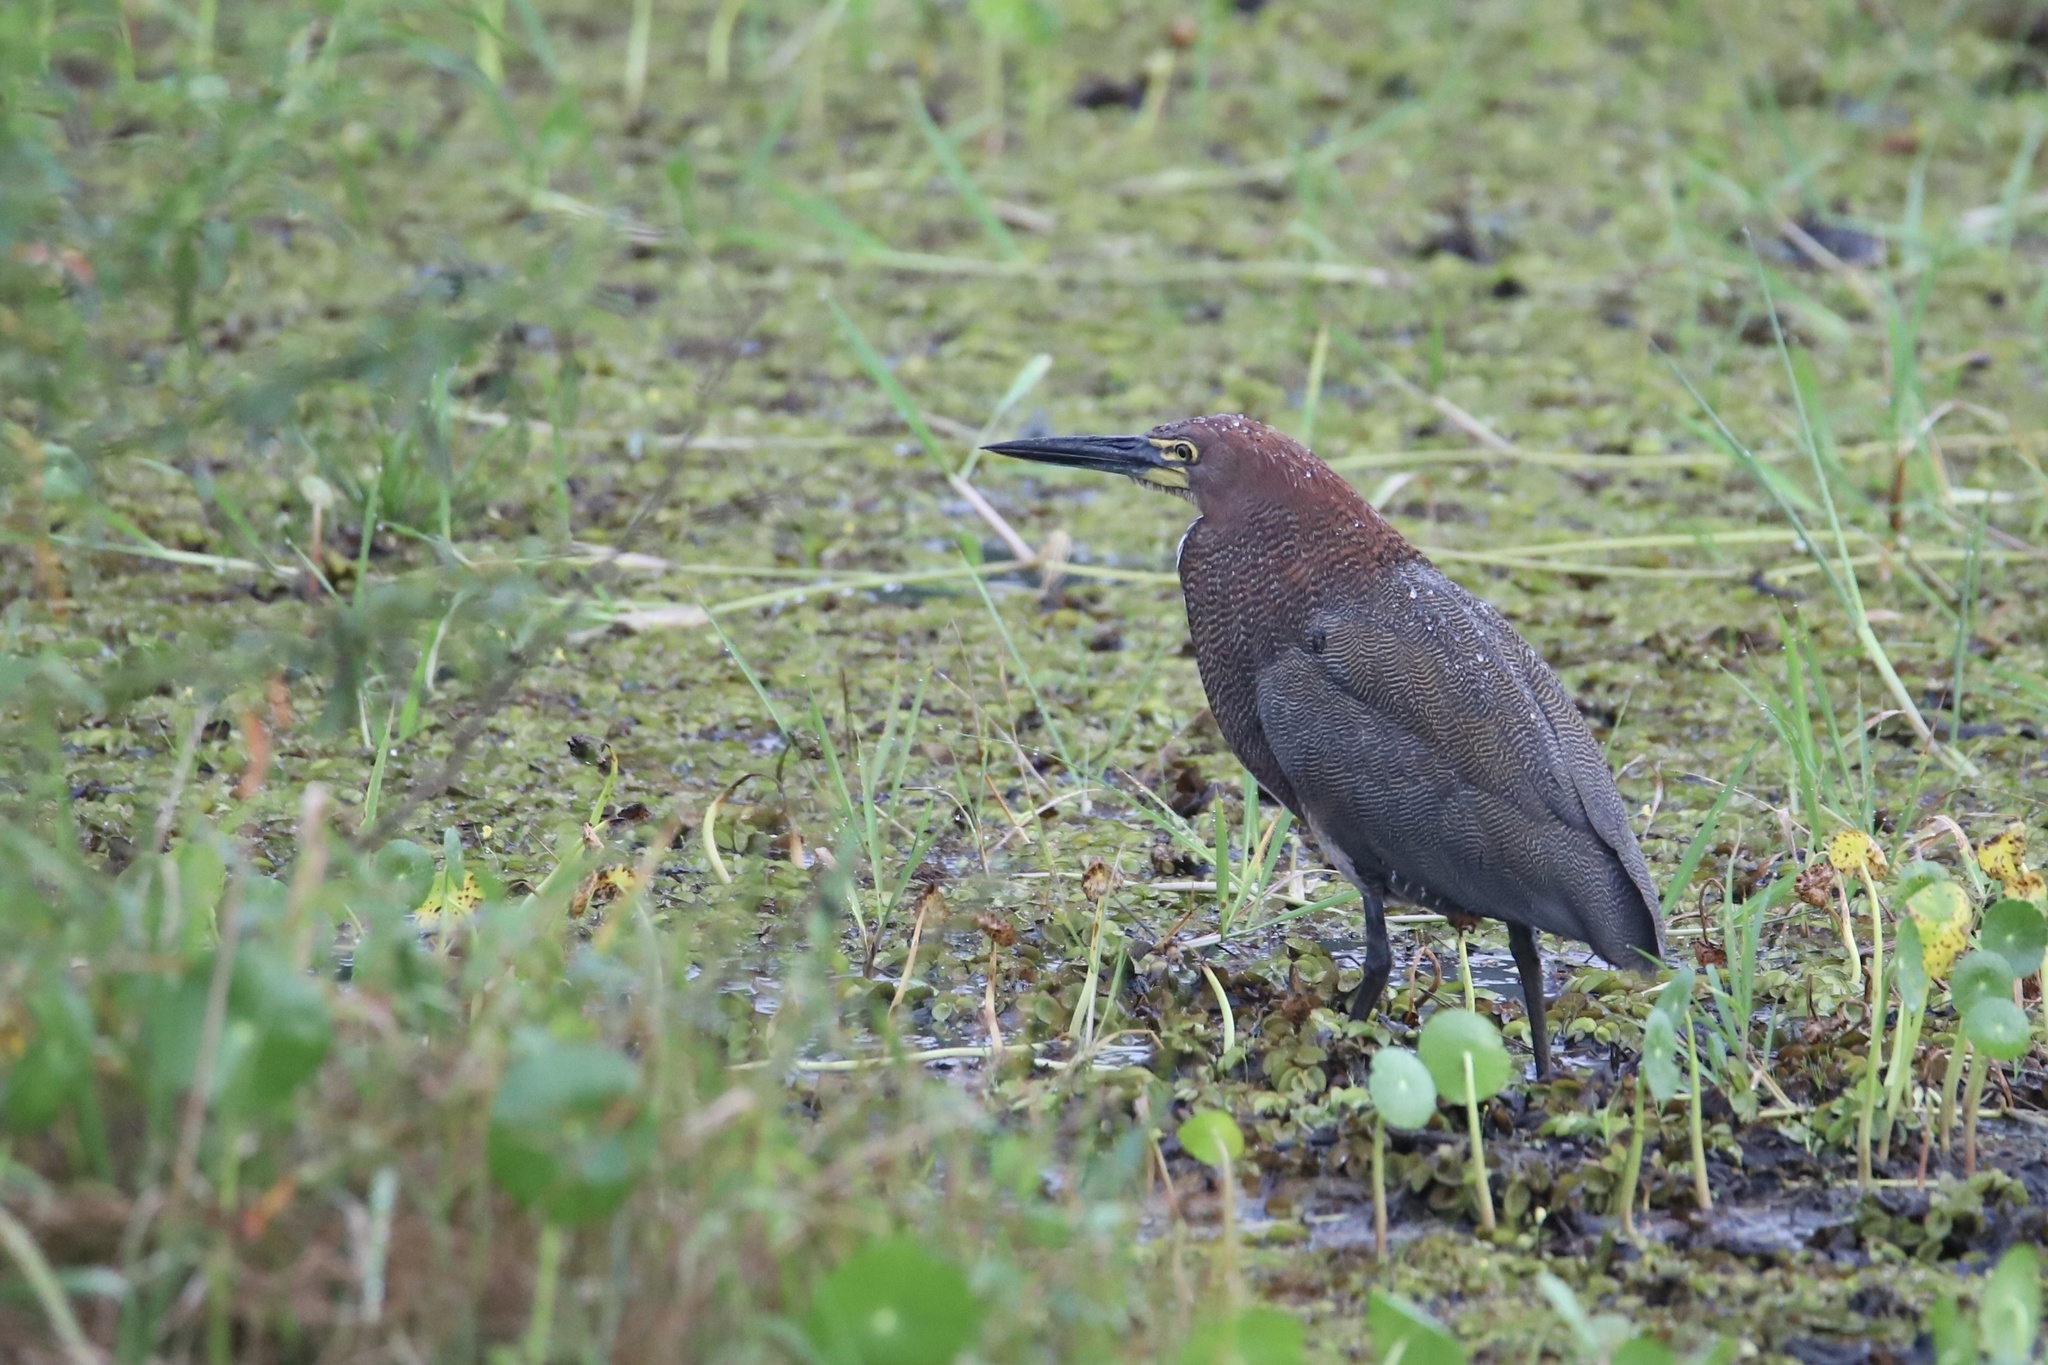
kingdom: Animalia
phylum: Chordata
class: Aves
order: Pelecaniformes
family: Ardeidae
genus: Tigrisoma
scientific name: Tigrisoma lineatum
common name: Rufescent tiger-heron
